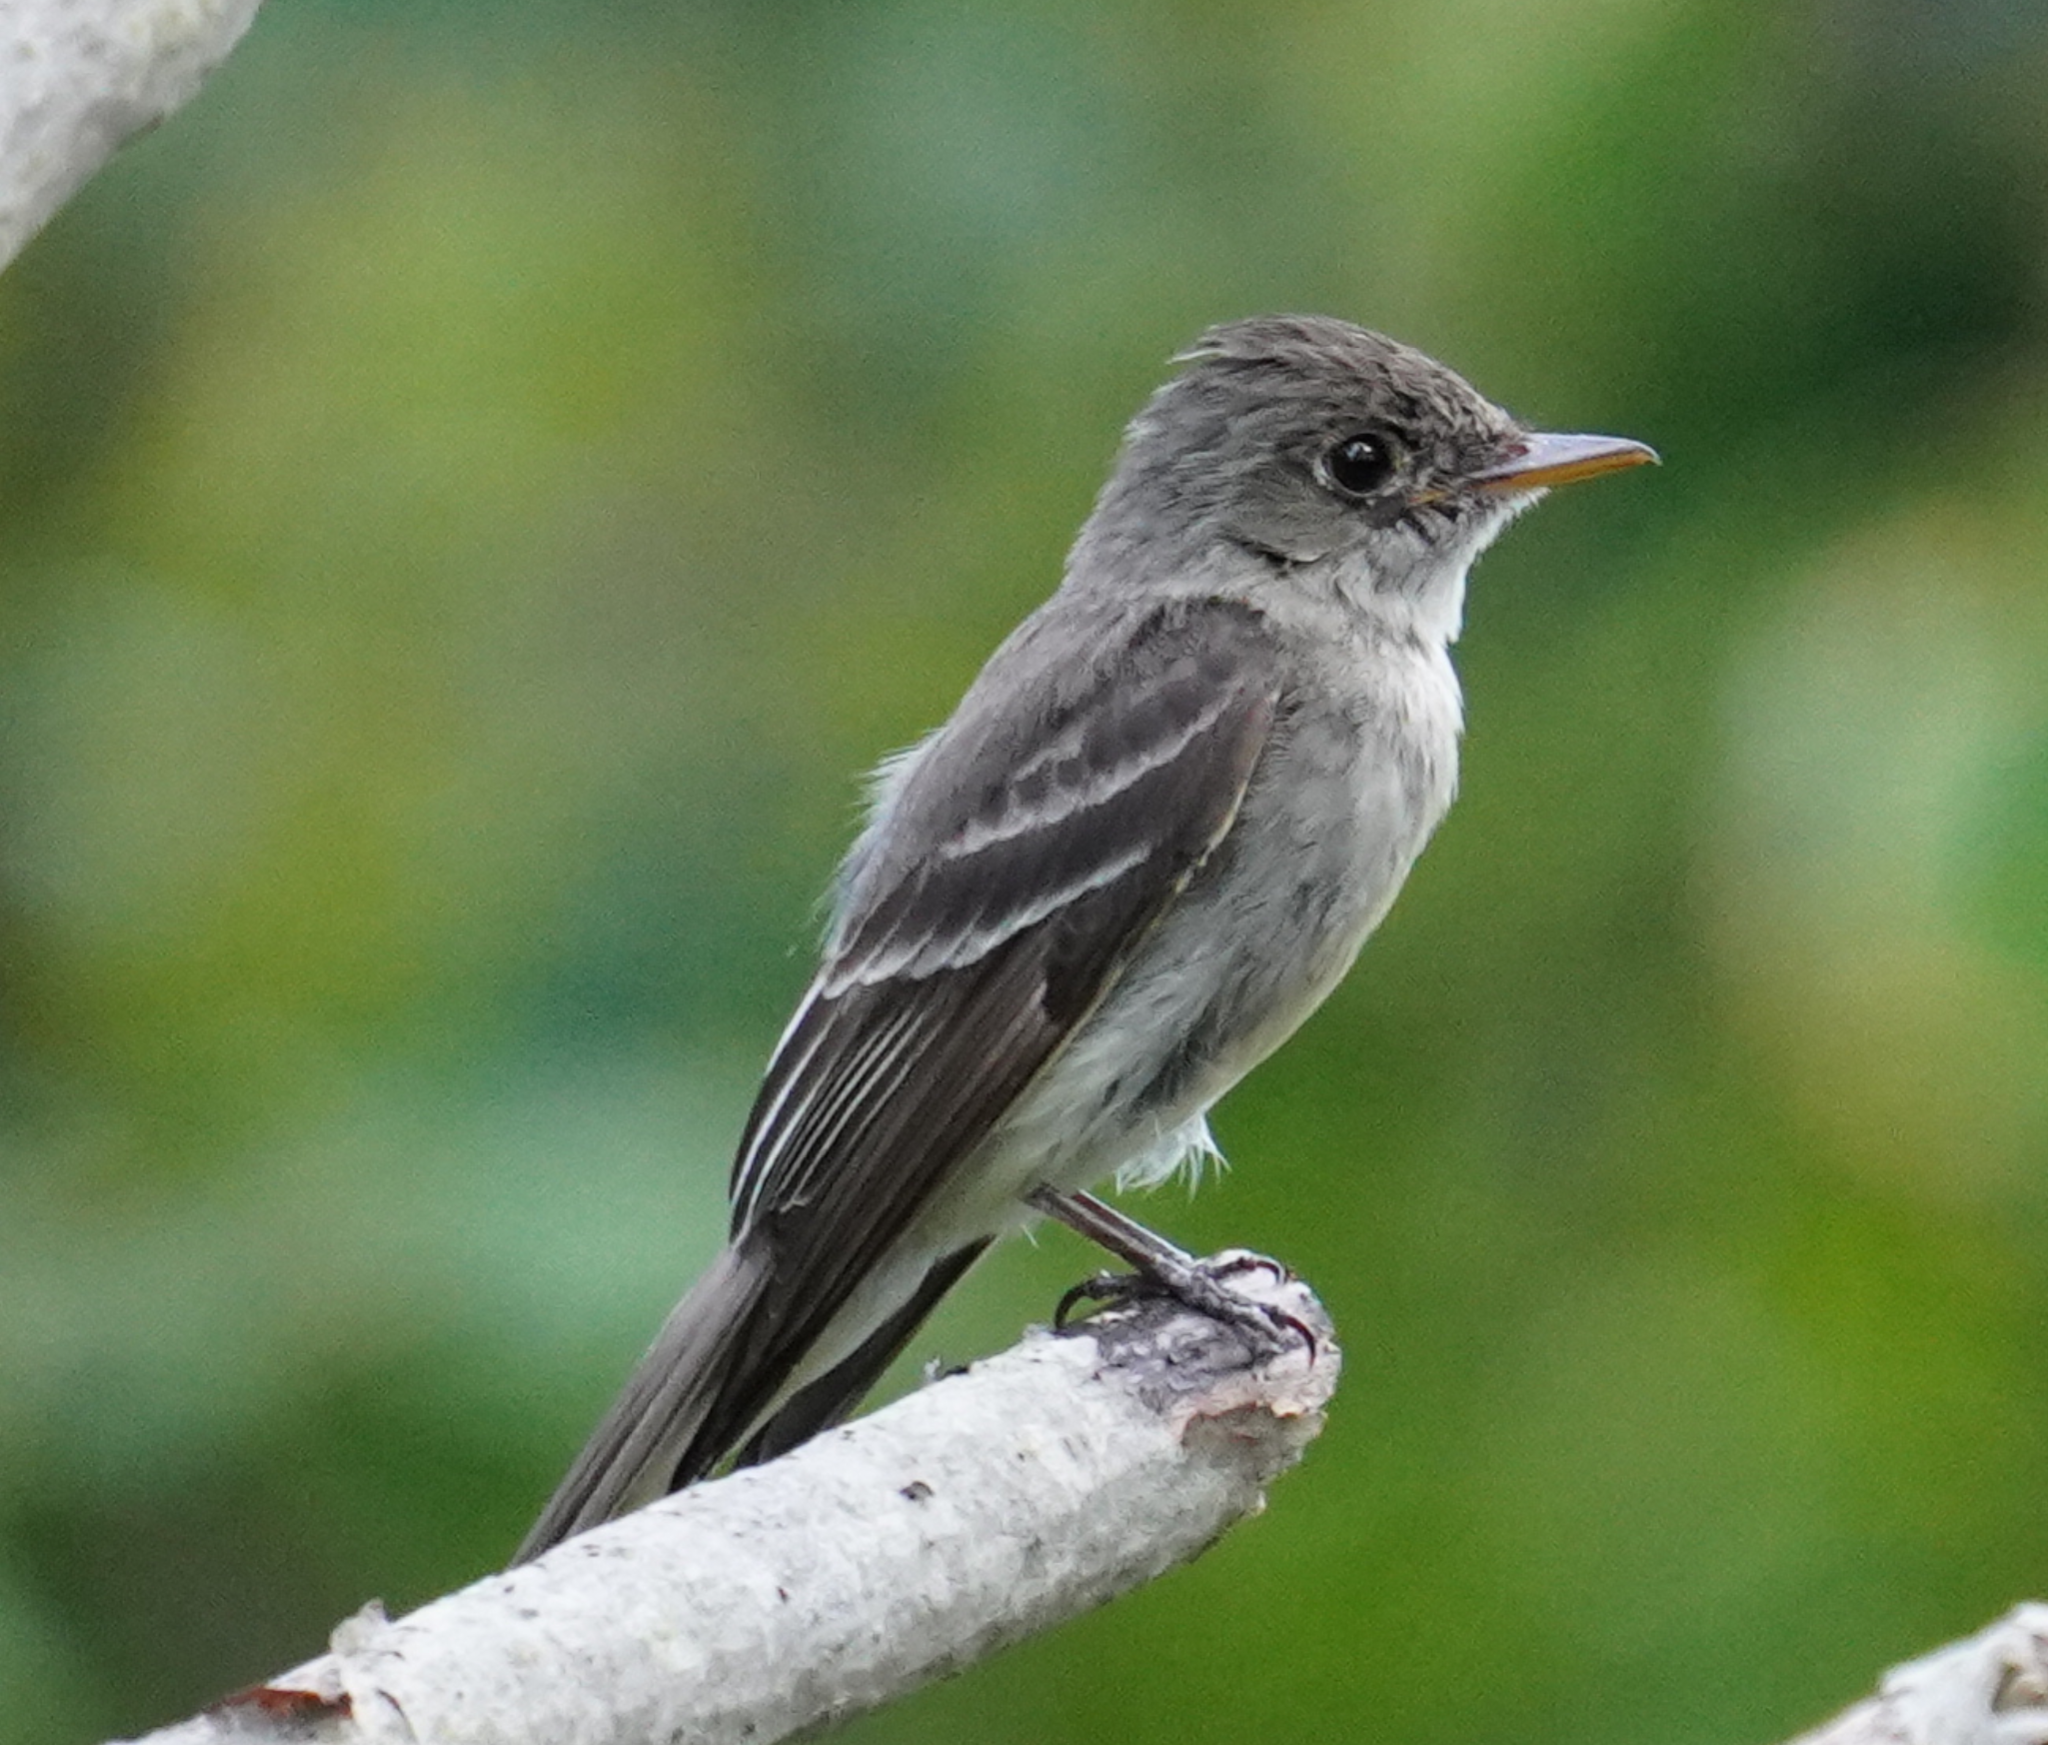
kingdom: Animalia
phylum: Chordata
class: Aves
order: Passeriformes
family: Tyrannidae
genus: Contopus
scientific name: Contopus virens
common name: Eastern wood-pewee
